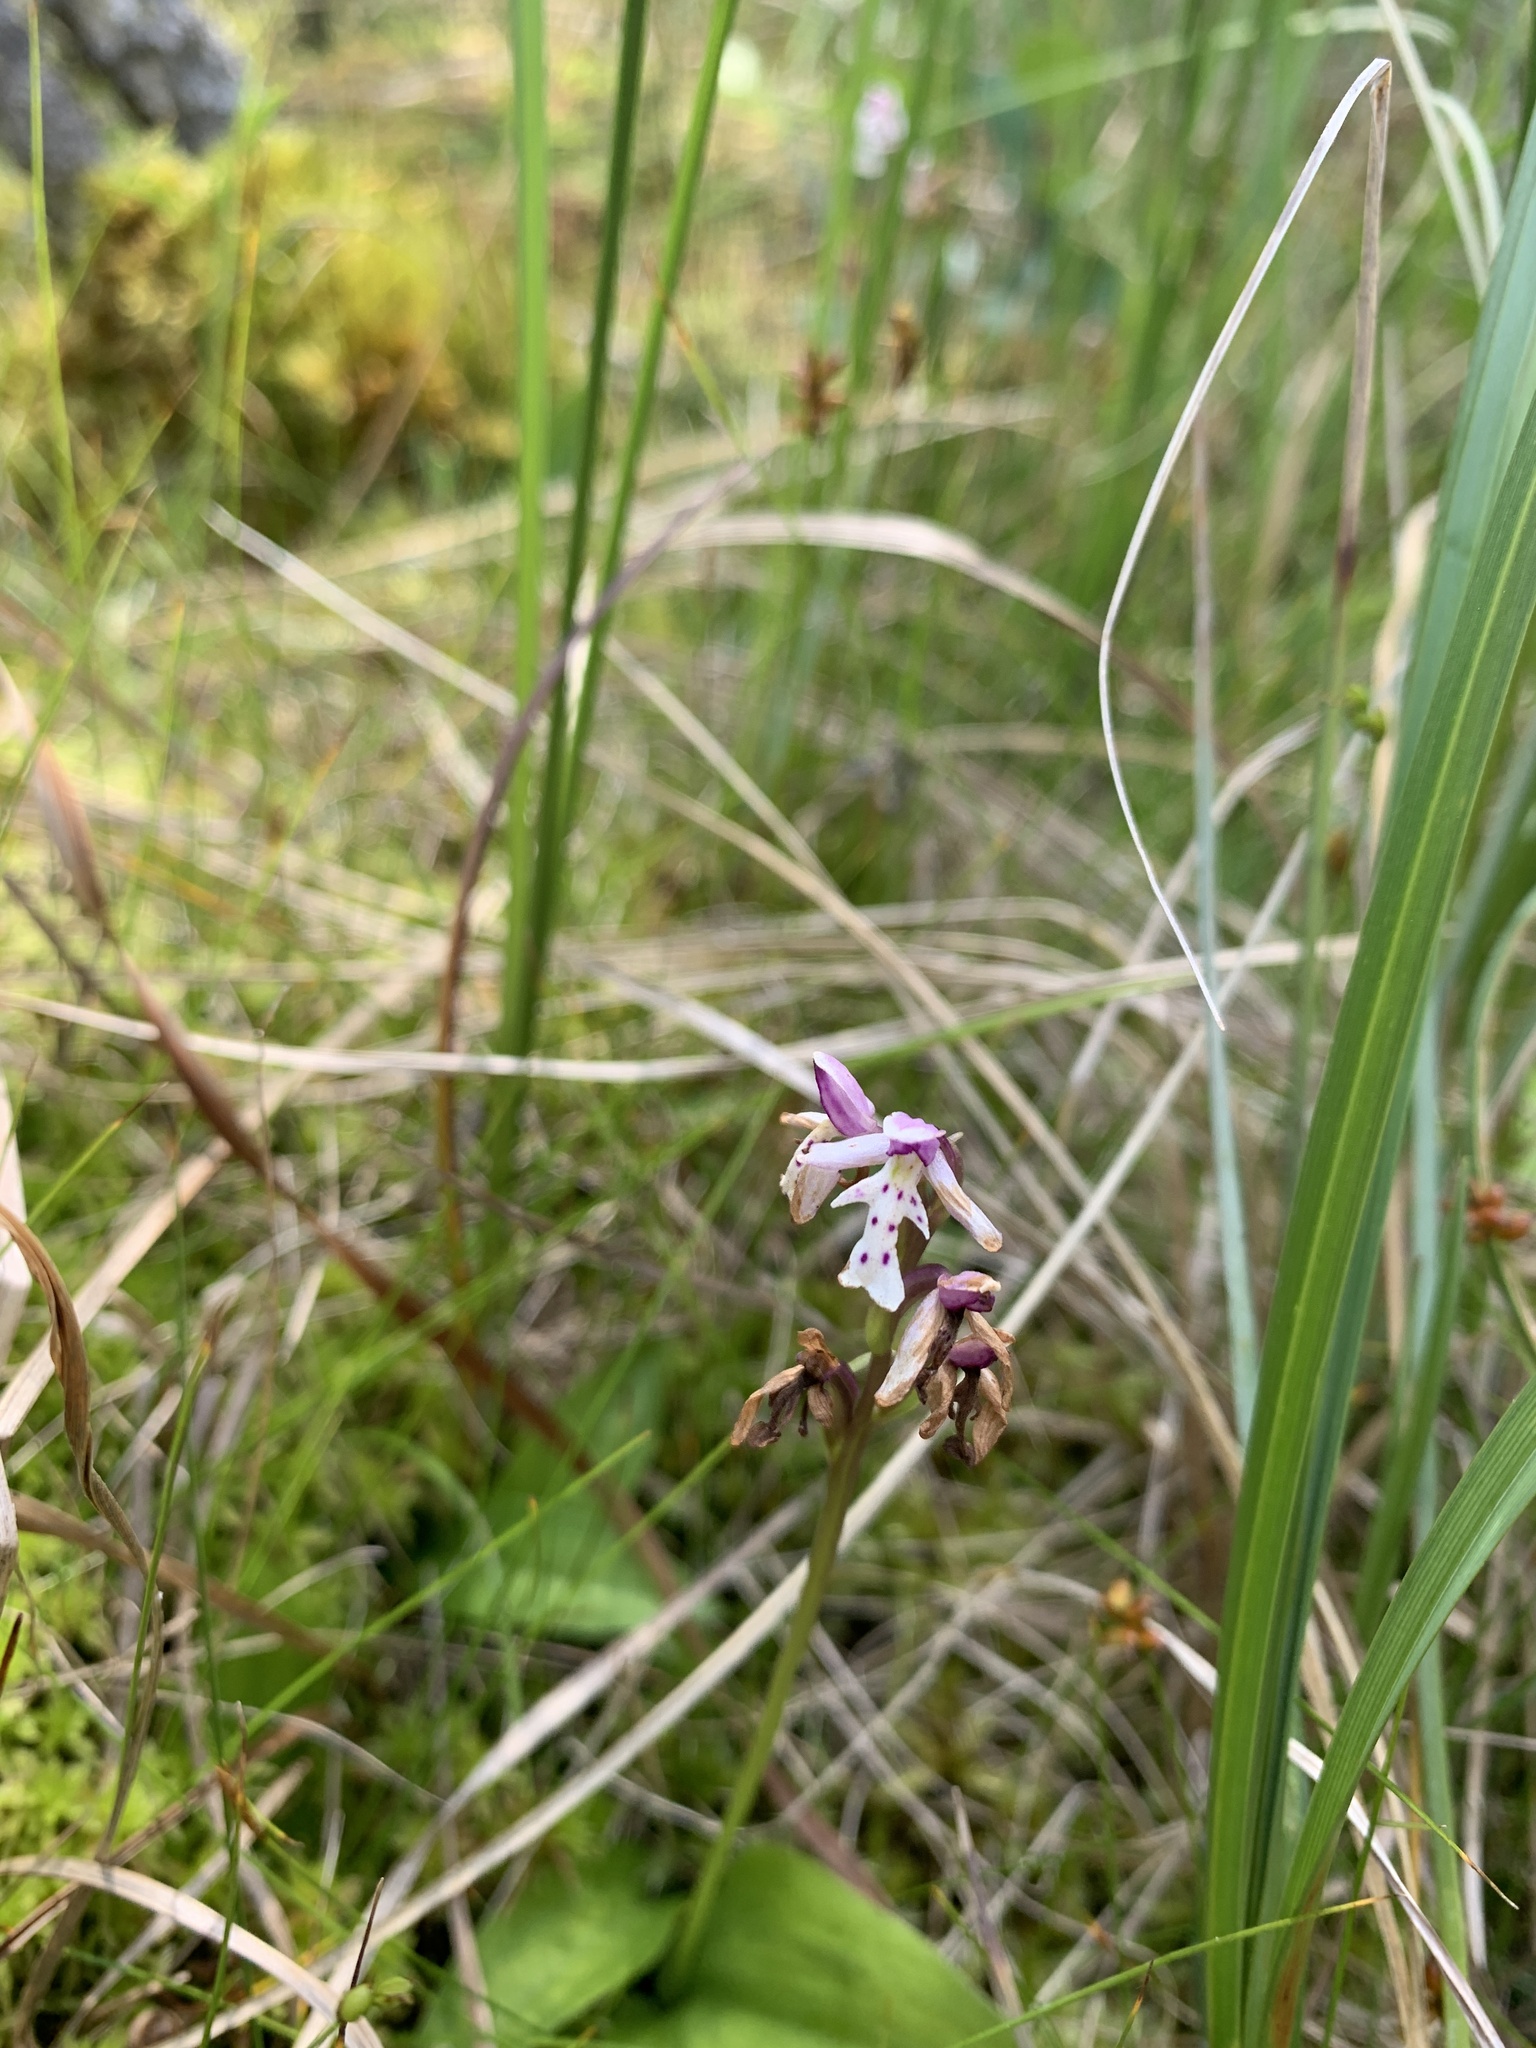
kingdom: Plantae
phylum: Tracheophyta
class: Liliopsida
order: Asparagales
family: Orchidaceae
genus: Galearis
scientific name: Galearis rotundifolia
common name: One-leaved orchis
